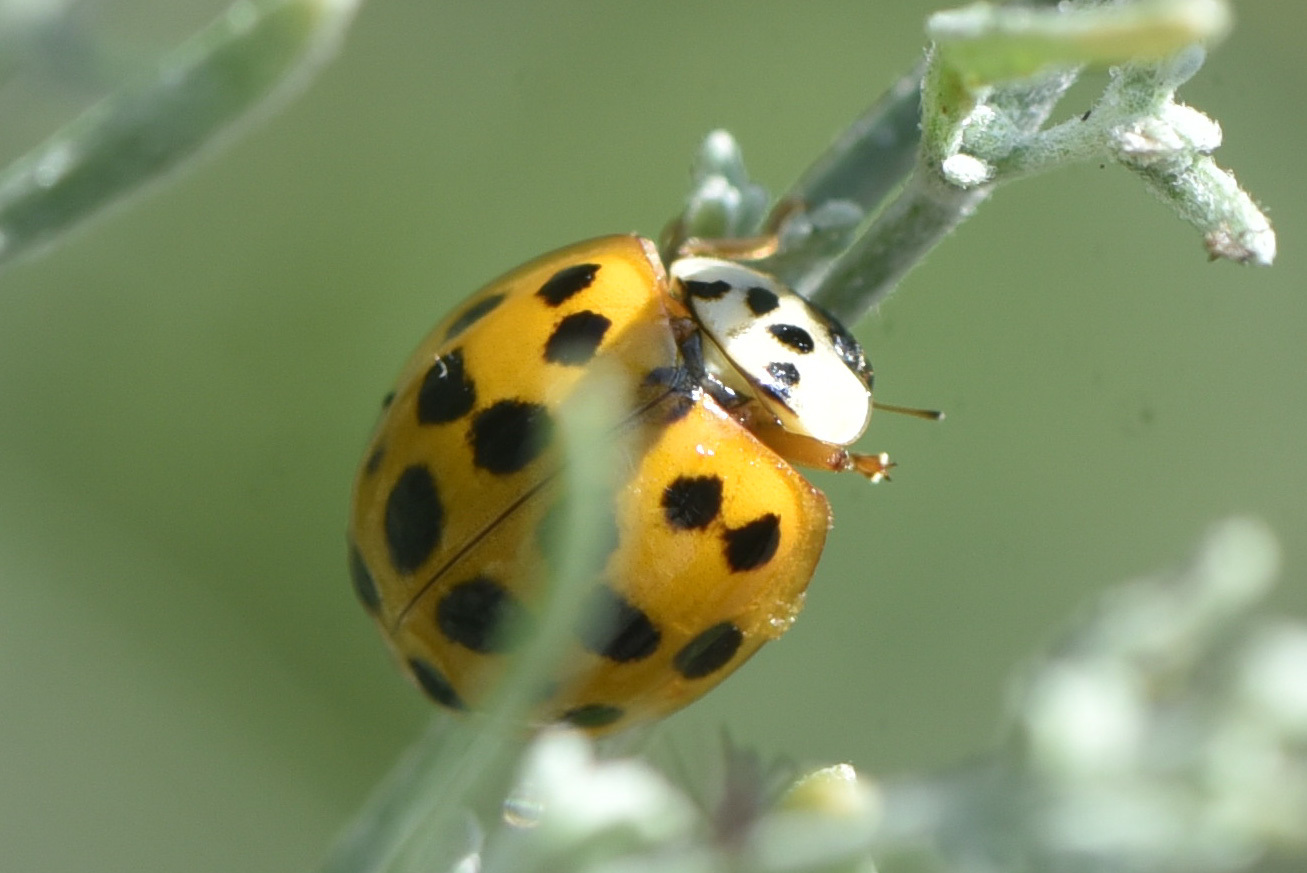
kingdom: Animalia
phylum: Arthropoda
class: Insecta
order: Coleoptera
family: Coccinellidae
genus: Harmonia
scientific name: Harmonia axyridis
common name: Harlequin ladybird
